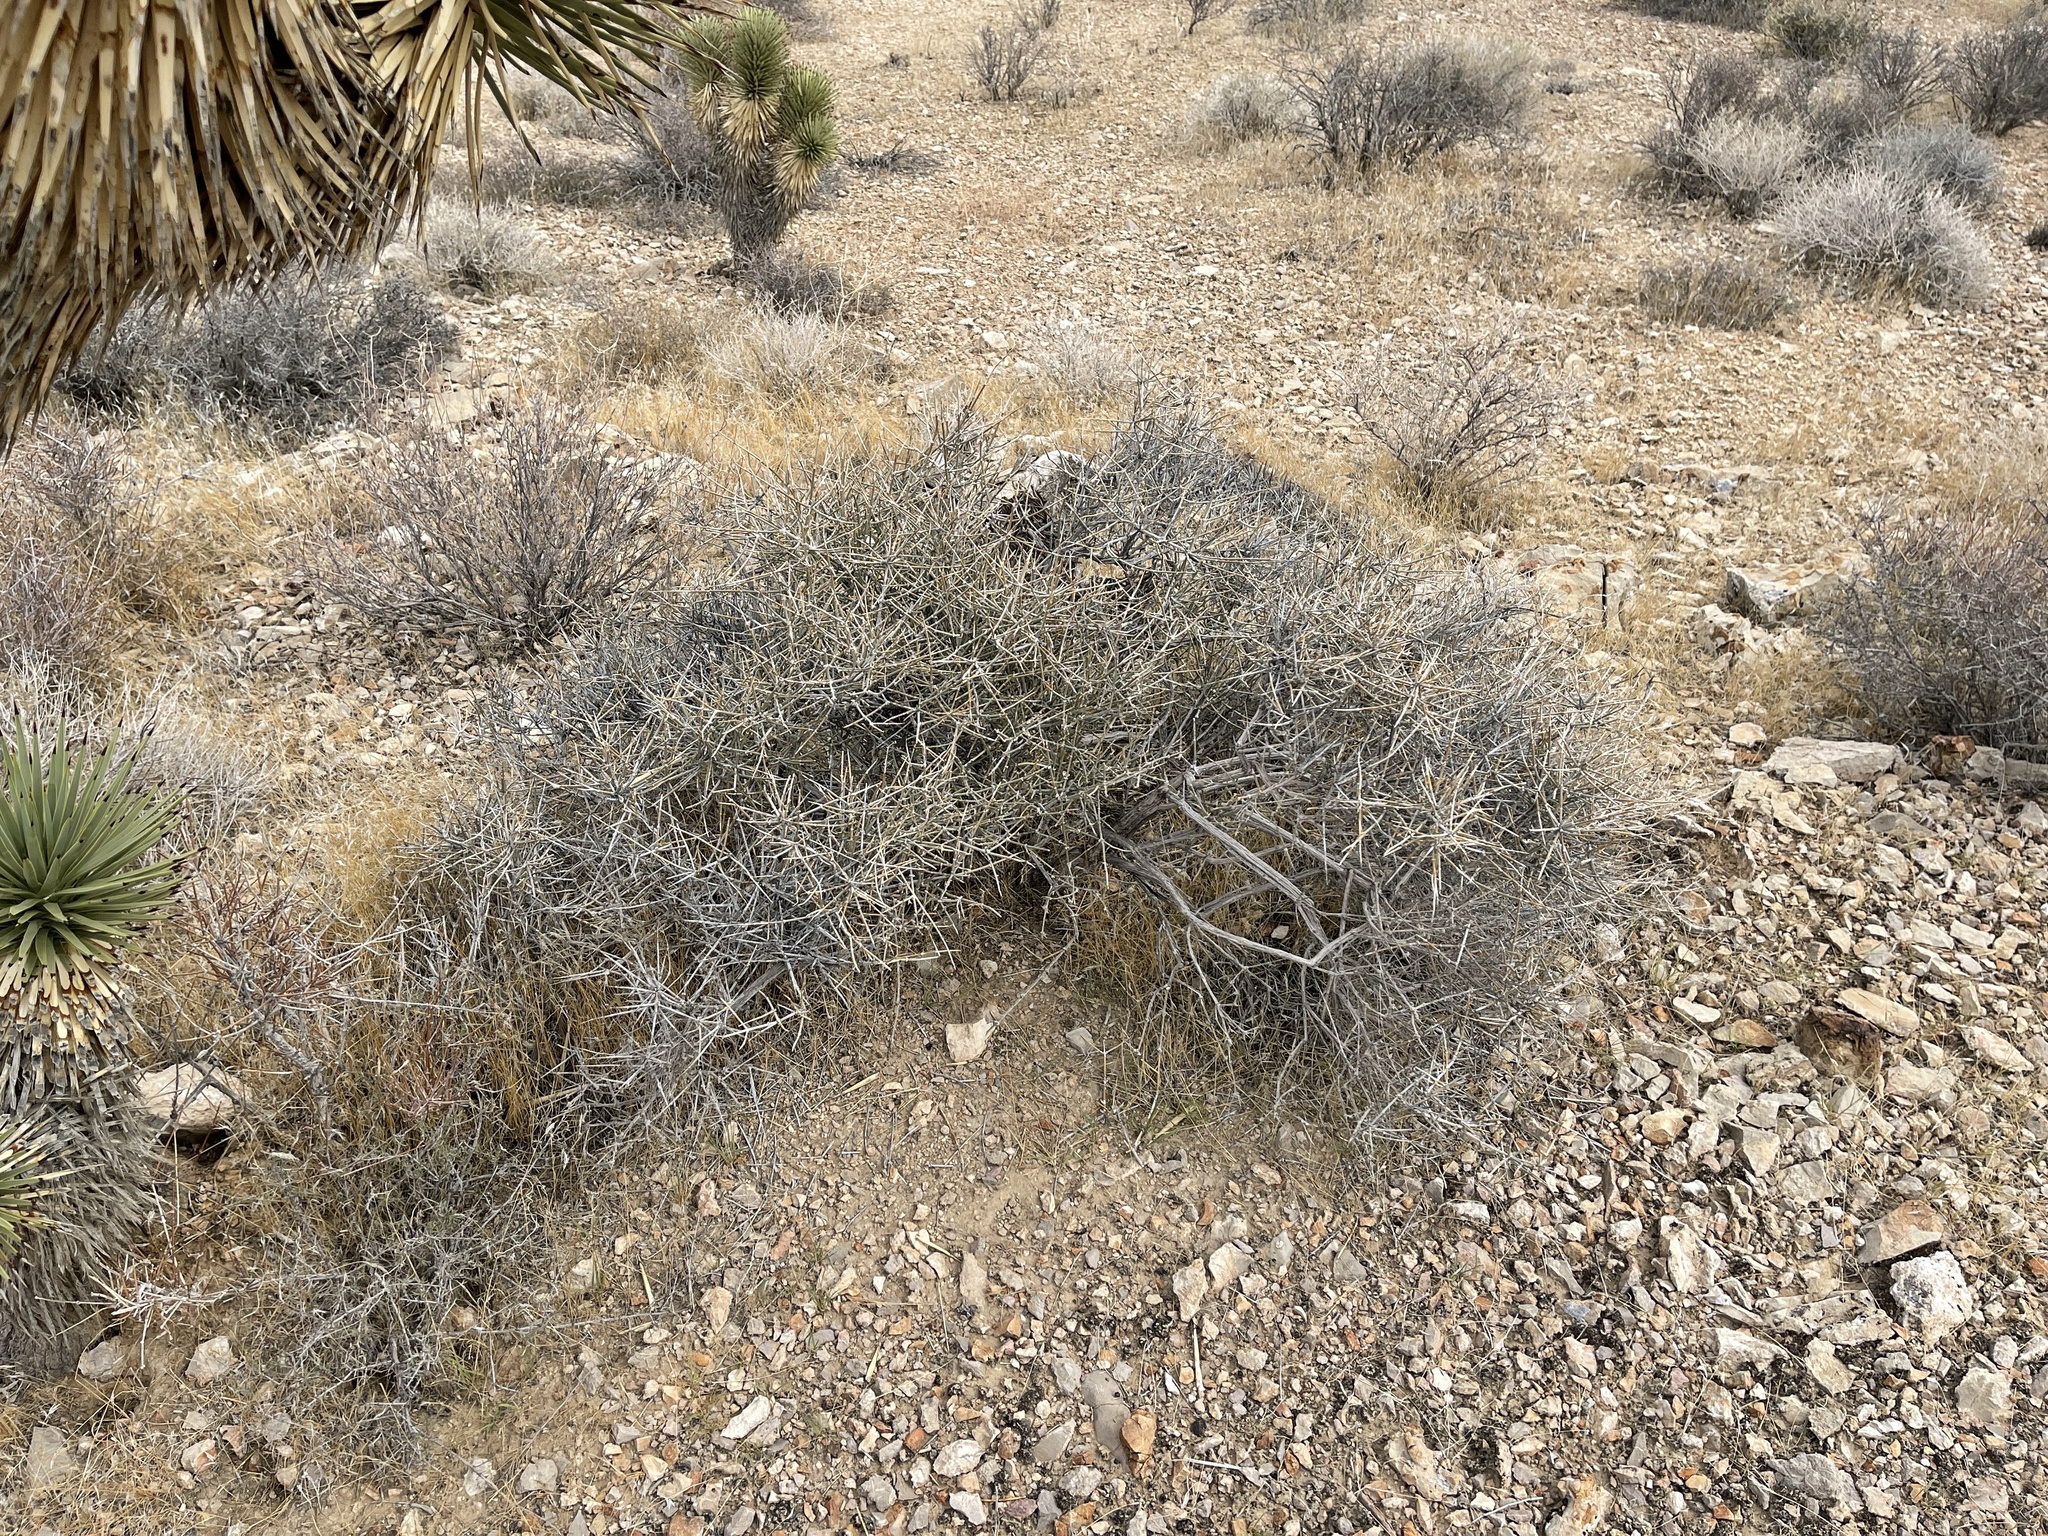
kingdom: Plantae
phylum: Tracheophyta
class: Gnetopsida
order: Ephedrales
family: Ephedraceae
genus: Ephedra
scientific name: Ephedra nevadensis
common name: Gray ephedra
